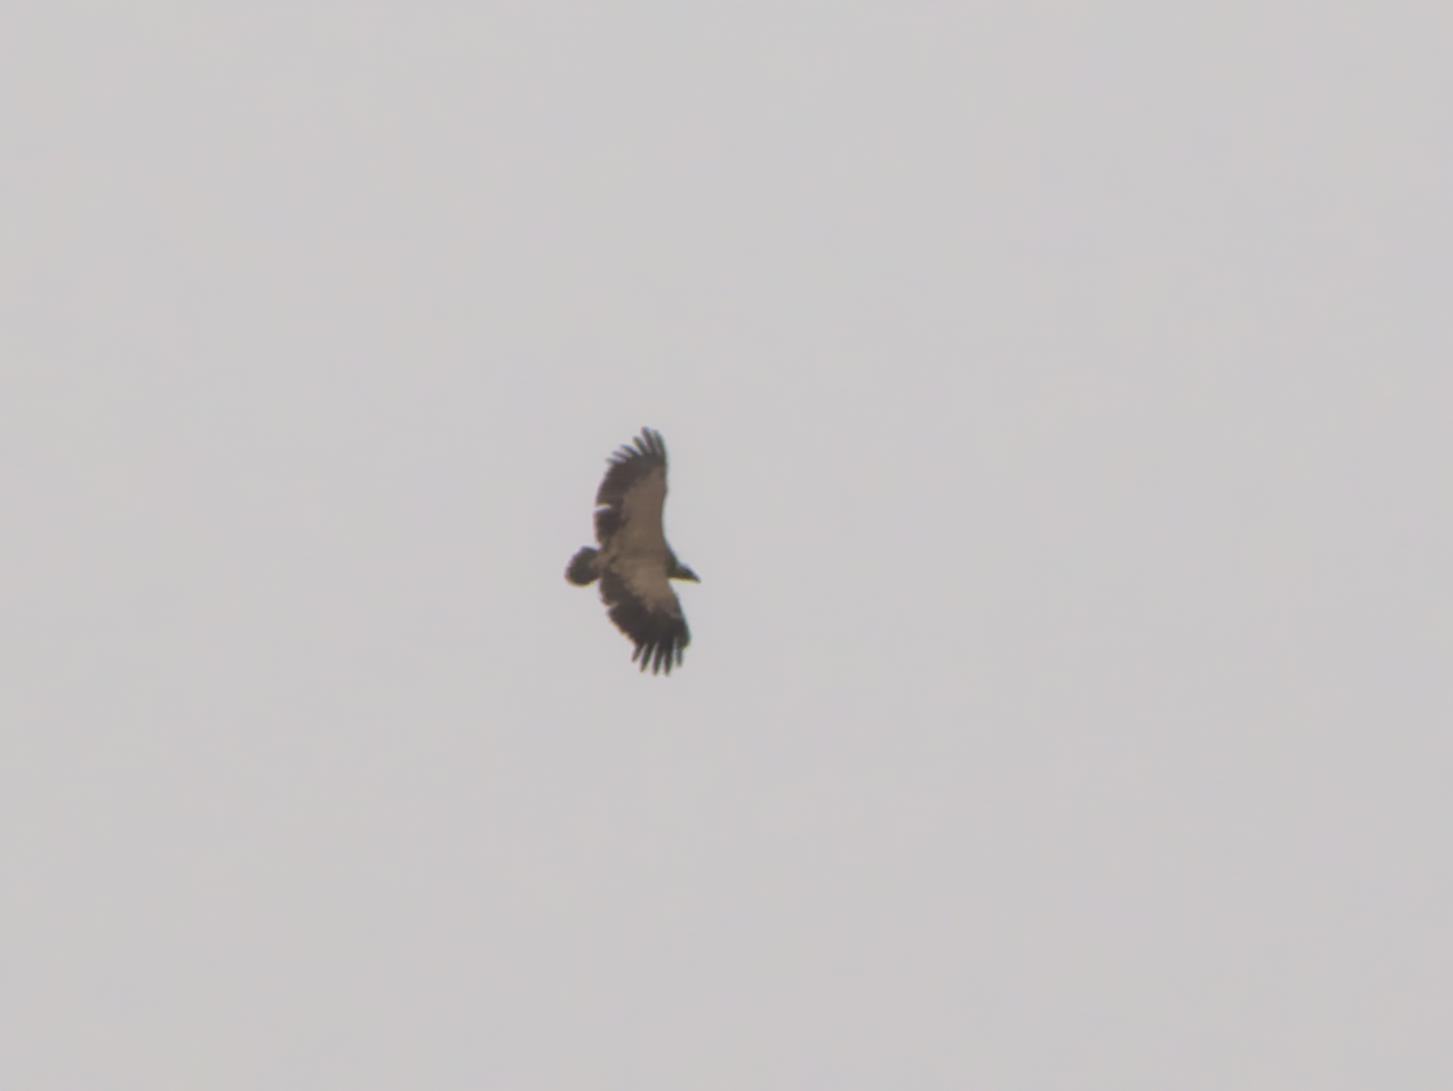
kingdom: Animalia
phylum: Chordata
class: Aves
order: Accipitriformes
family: Accipitridae
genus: Gyps
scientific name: Gyps fulvus
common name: Griffon vulture
